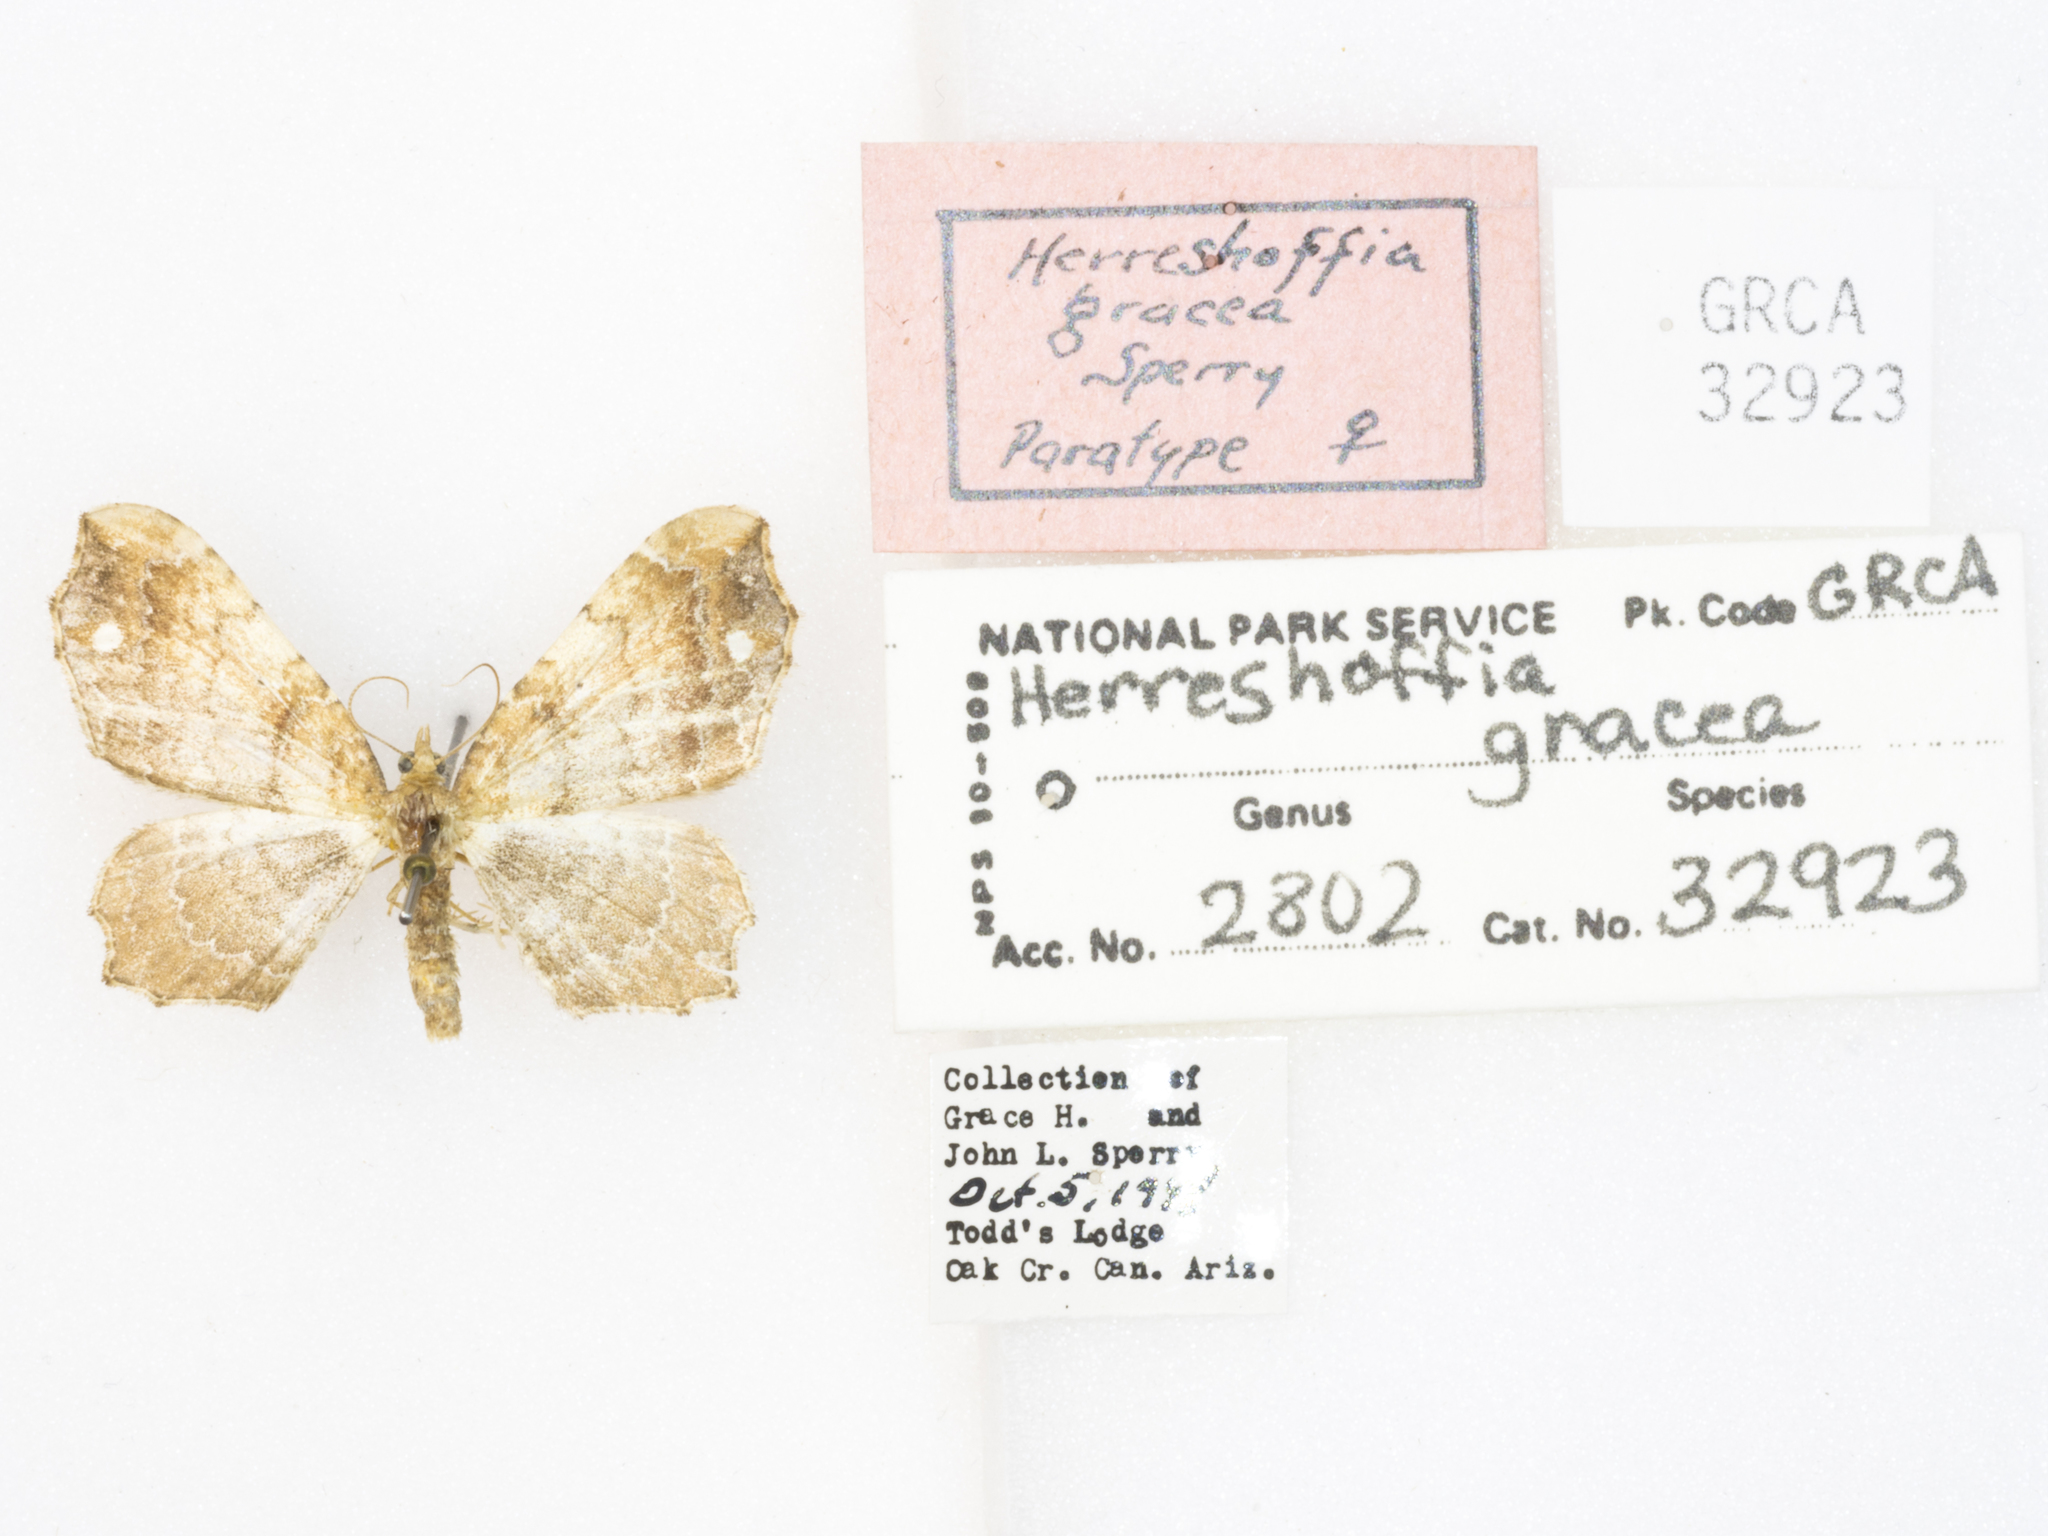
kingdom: Animalia
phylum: Arthropoda
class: Insecta
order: Lepidoptera
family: Geometridae
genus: Orthonama
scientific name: Orthonama gracea
